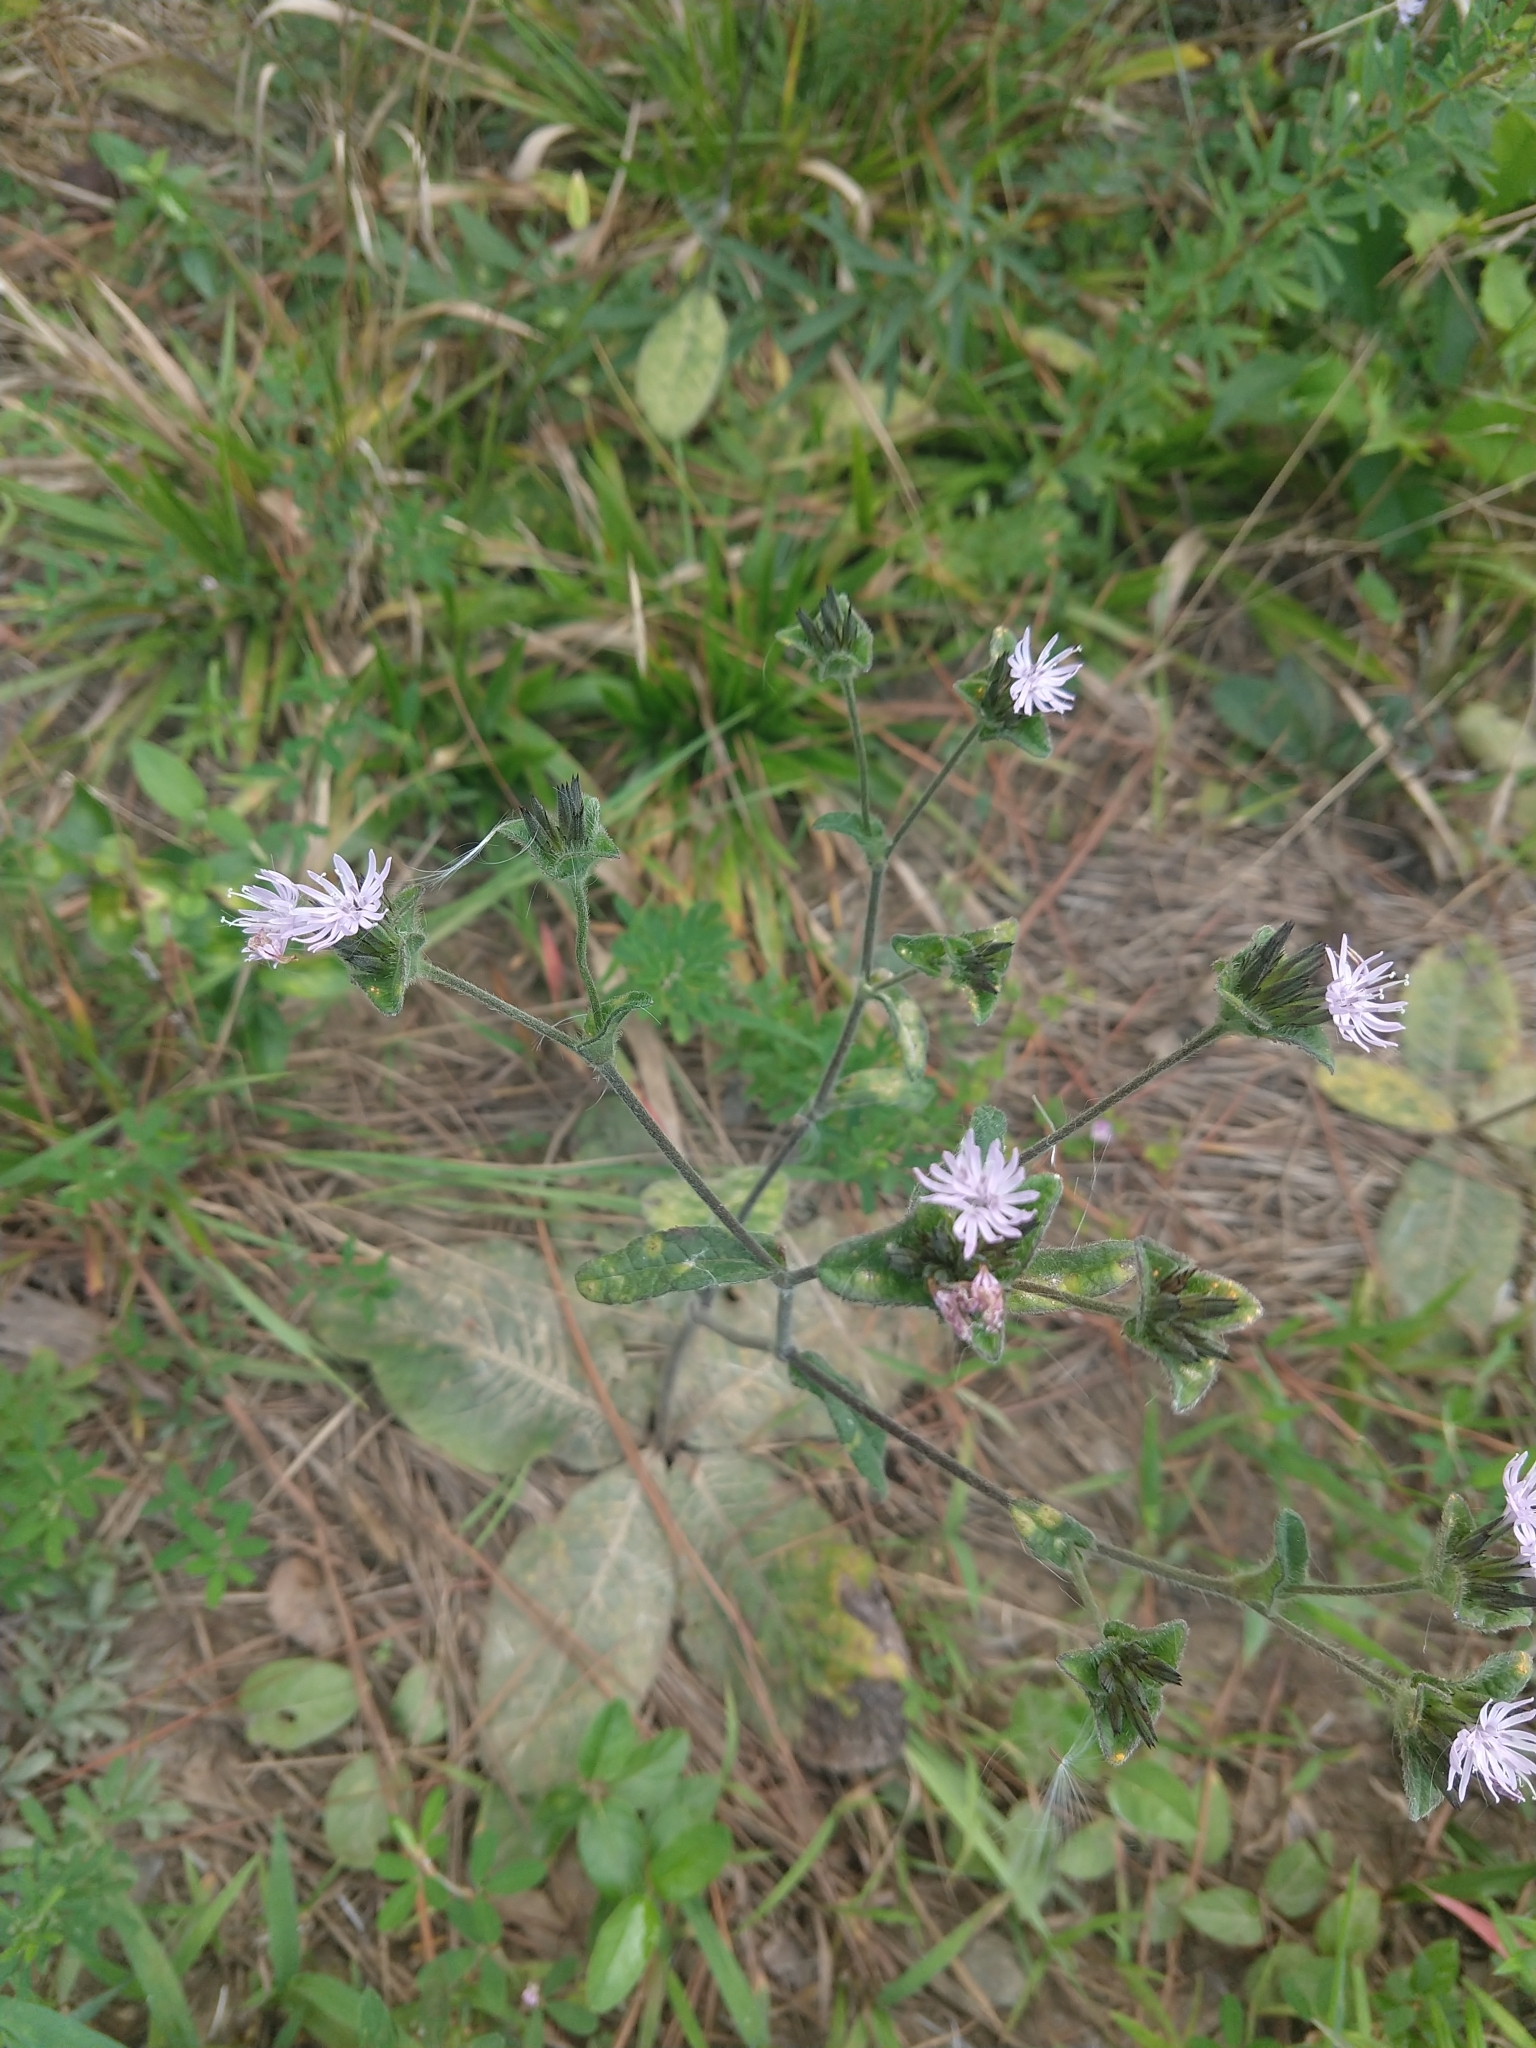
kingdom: Plantae
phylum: Tracheophyta
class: Magnoliopsida
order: Asterales
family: Asteraceae
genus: Elephantopus
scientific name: Elephantopus tomentosus
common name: Tobacco-weed
